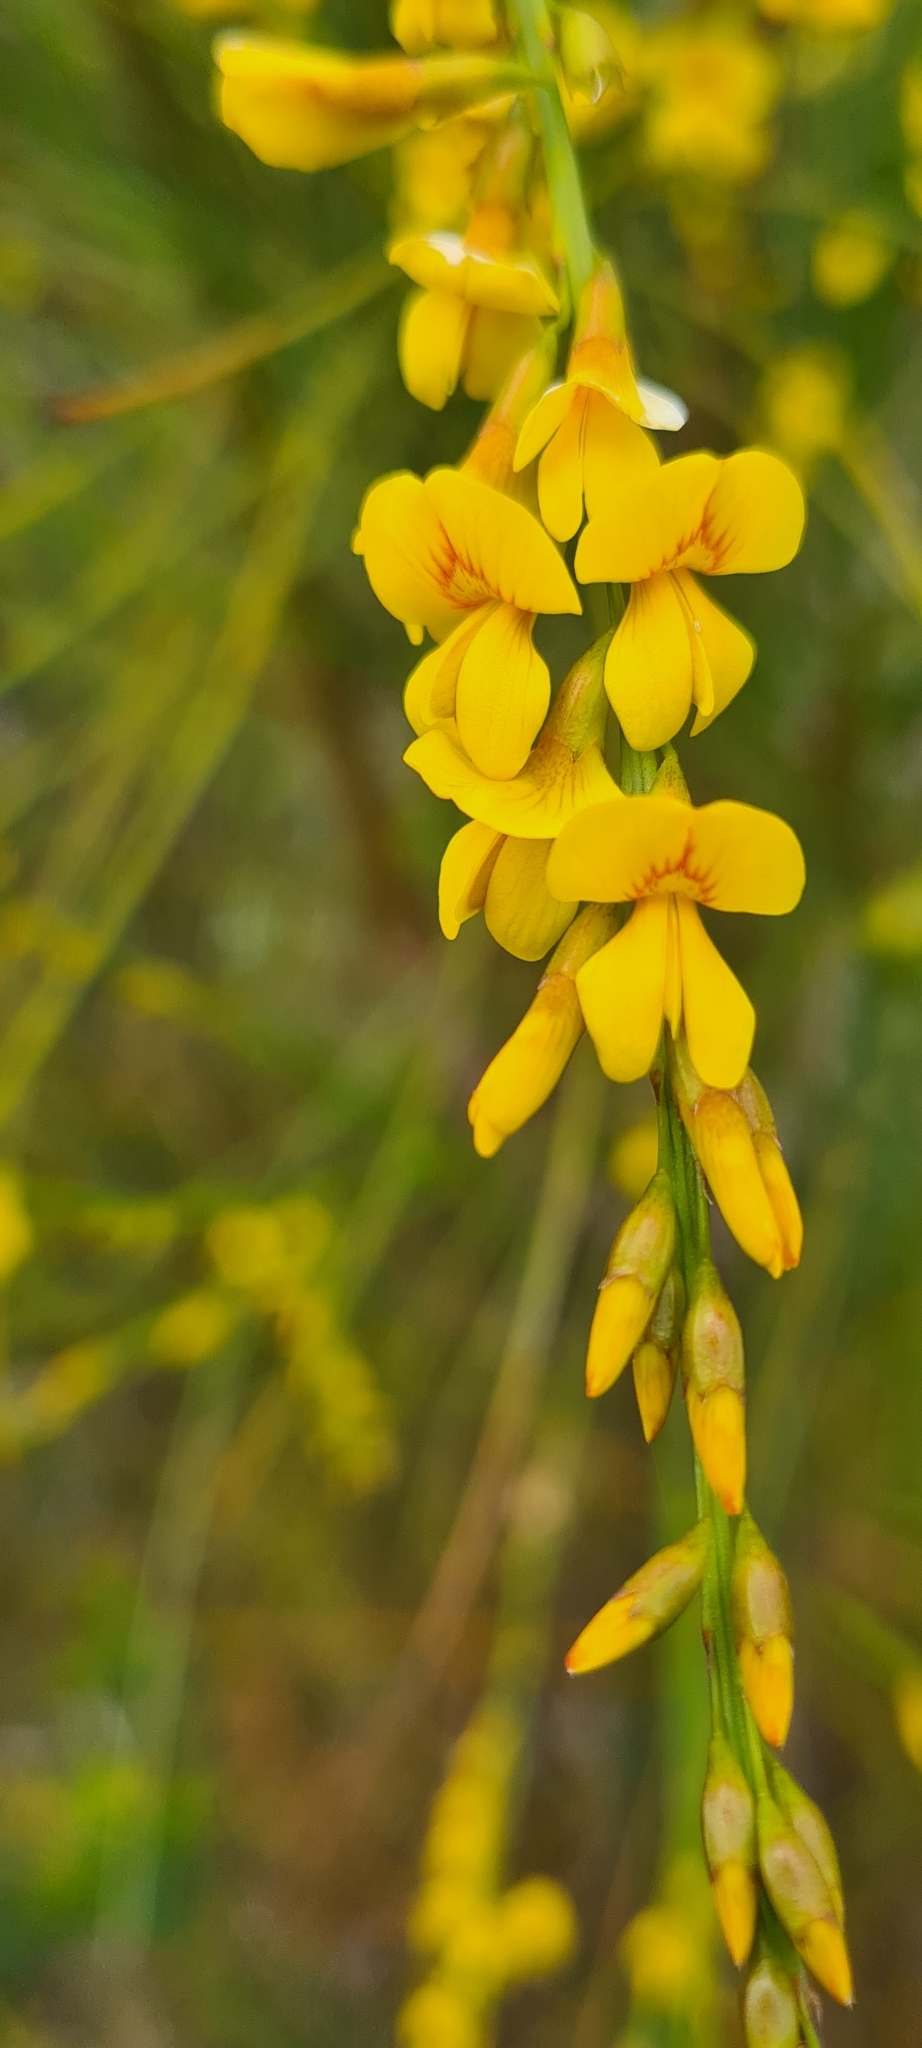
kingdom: Plantae
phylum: Tracheophyta
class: Magnoliopsida
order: Fabales
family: Fabaceae
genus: Viminaria
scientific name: Viminaria juncea
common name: Golden spray
